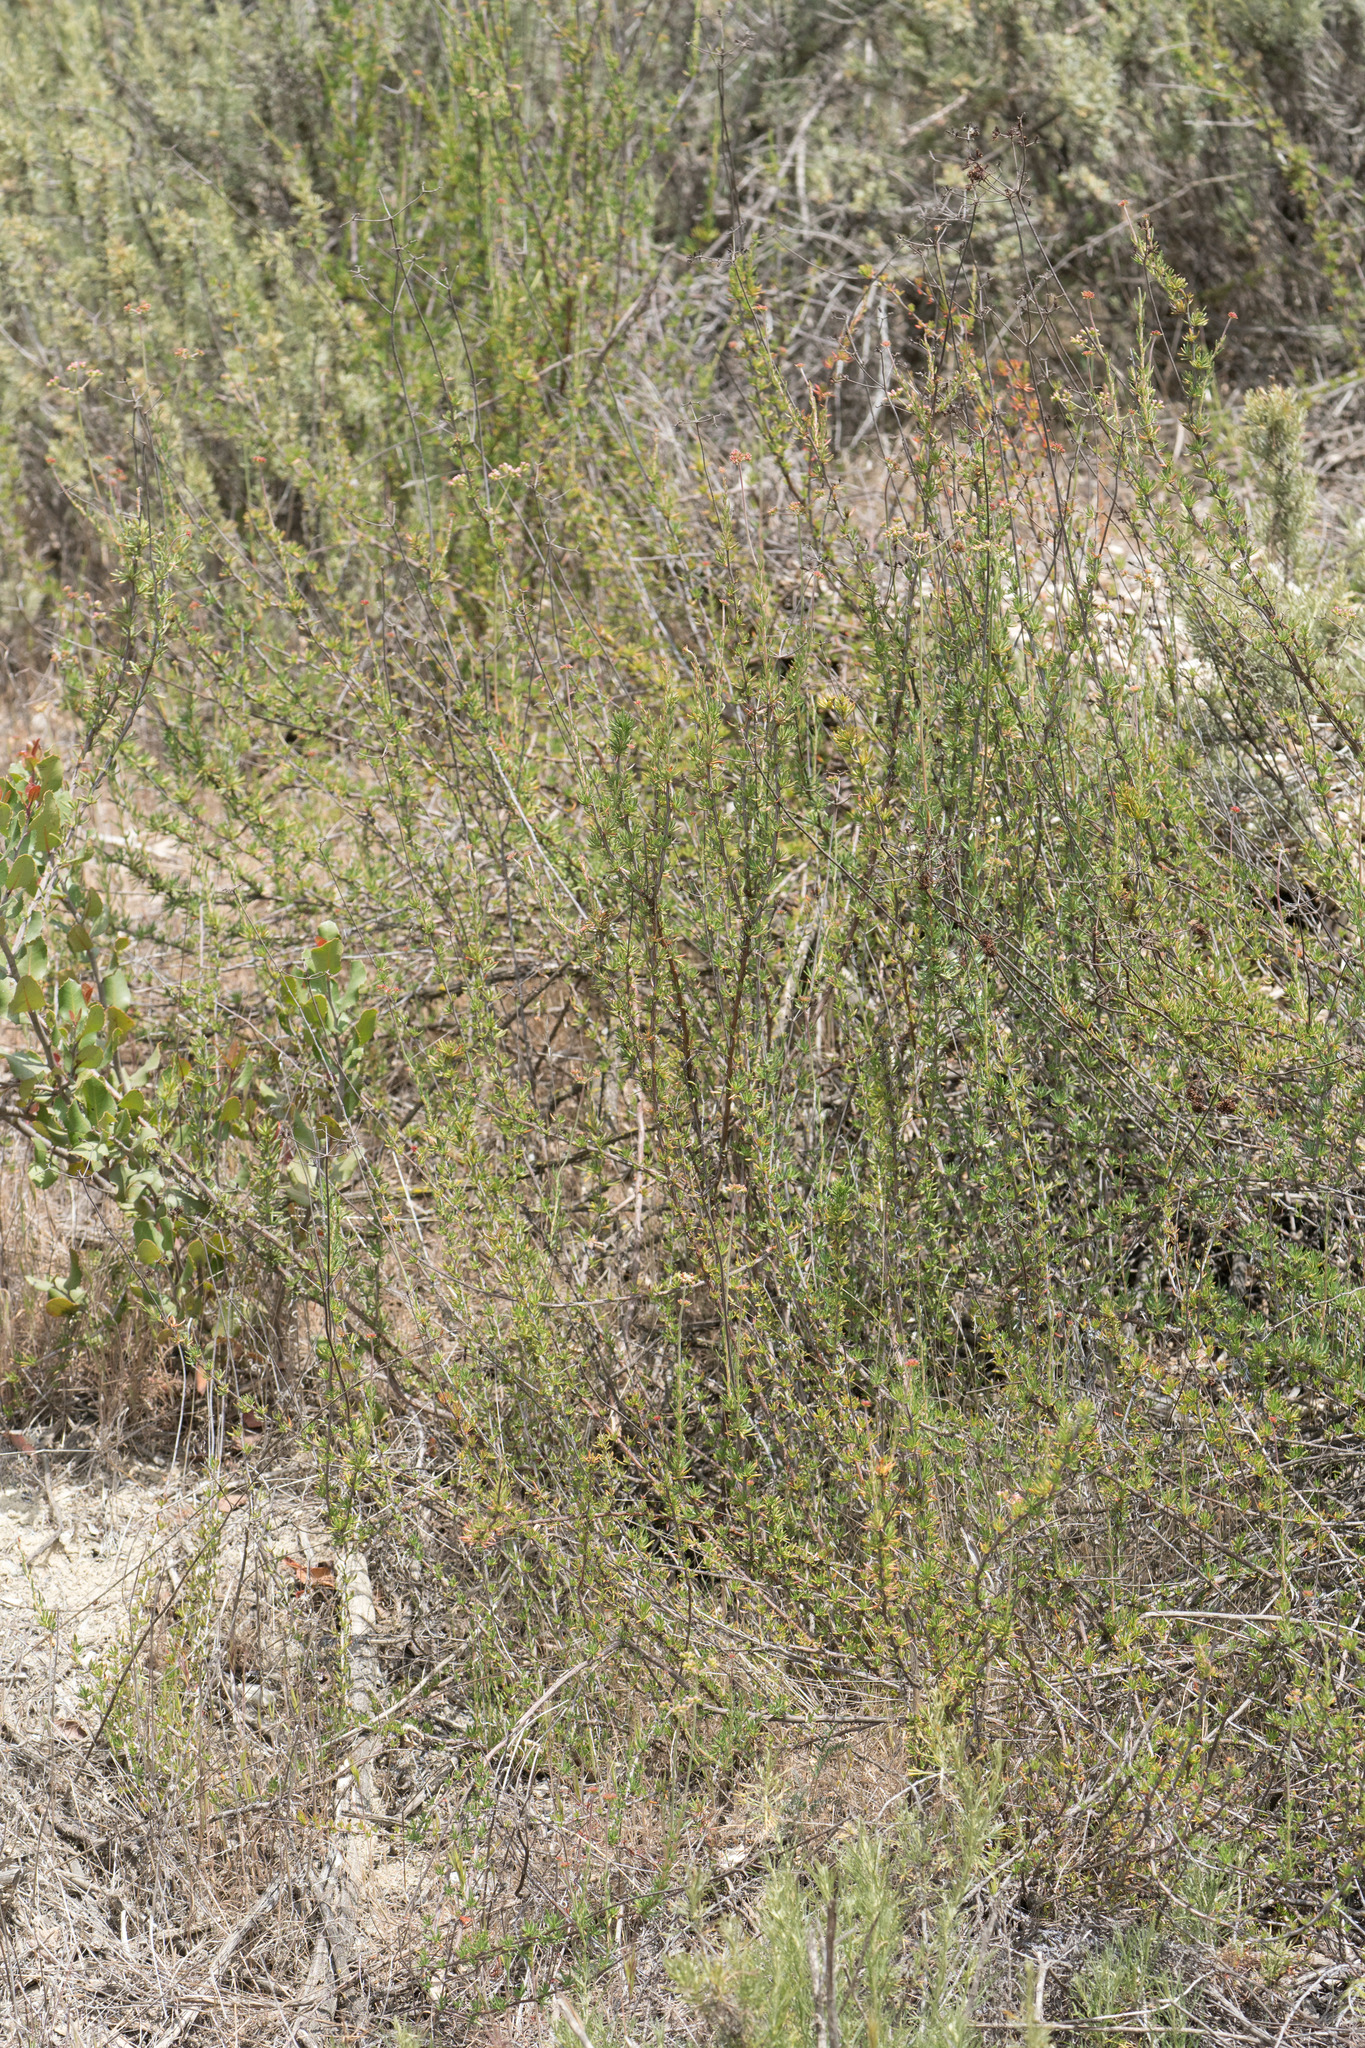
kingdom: Plantae
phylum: Tracheophyta
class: Magnoliopsida
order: Caryophyllales
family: Polygonaceae
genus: Eriogonum
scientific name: Eriogonum fasciculatum
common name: California wild buckwheat
